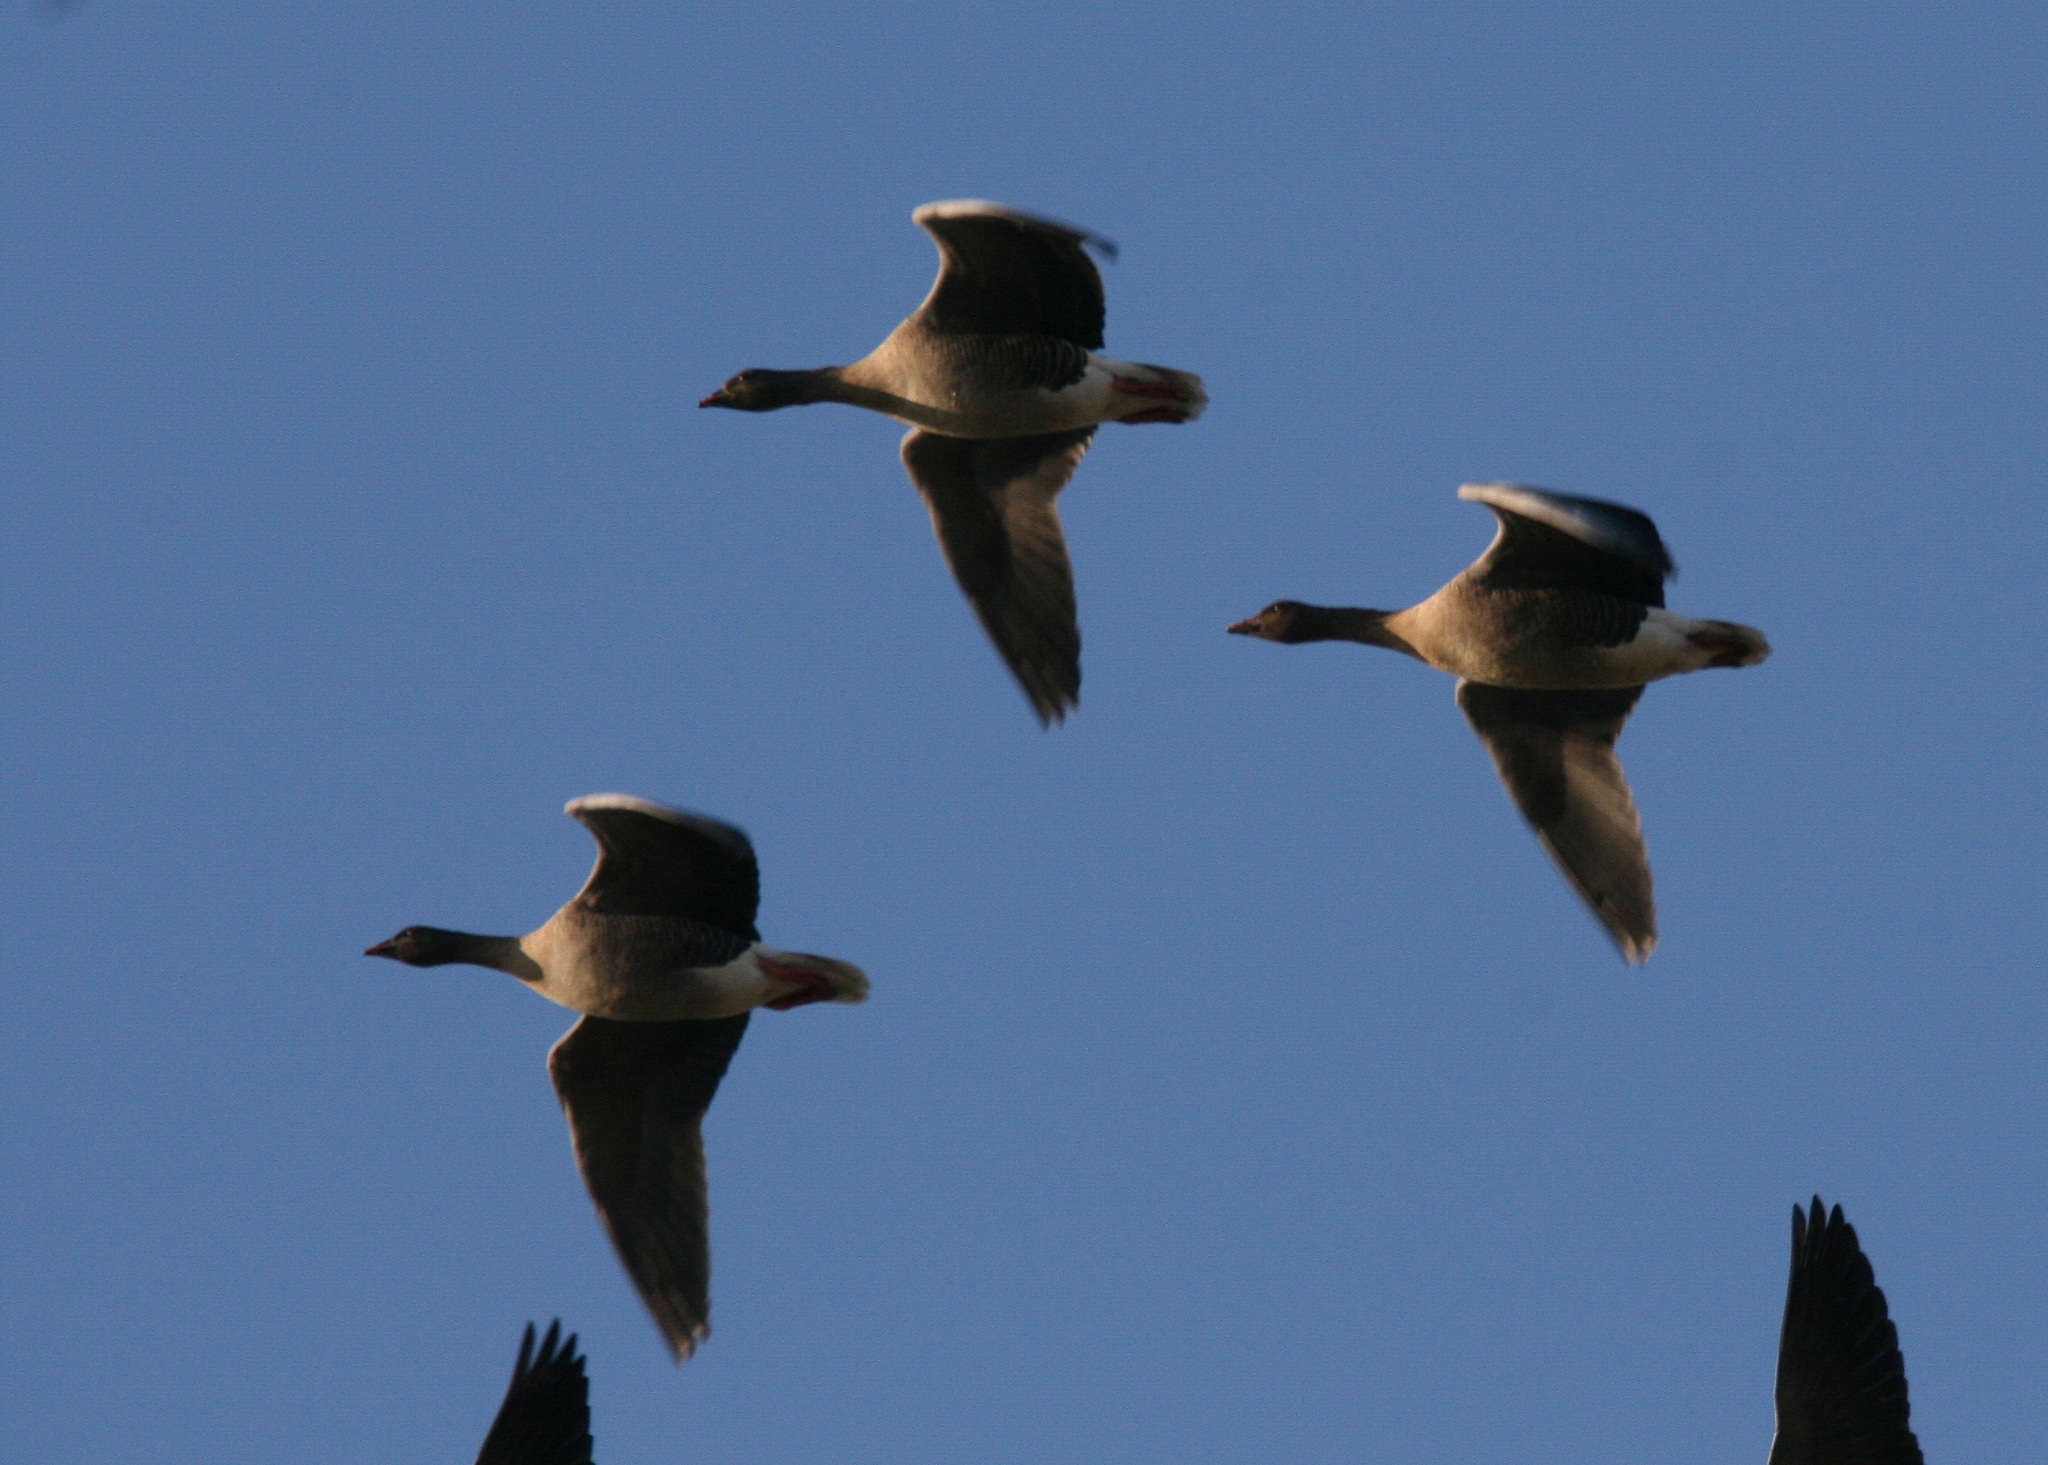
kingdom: Animalia
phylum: Chordata
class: Aves
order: Anseriformes
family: Anatidae
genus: Anser
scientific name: Anser brachyrhynchus
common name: Pink-footed goose
